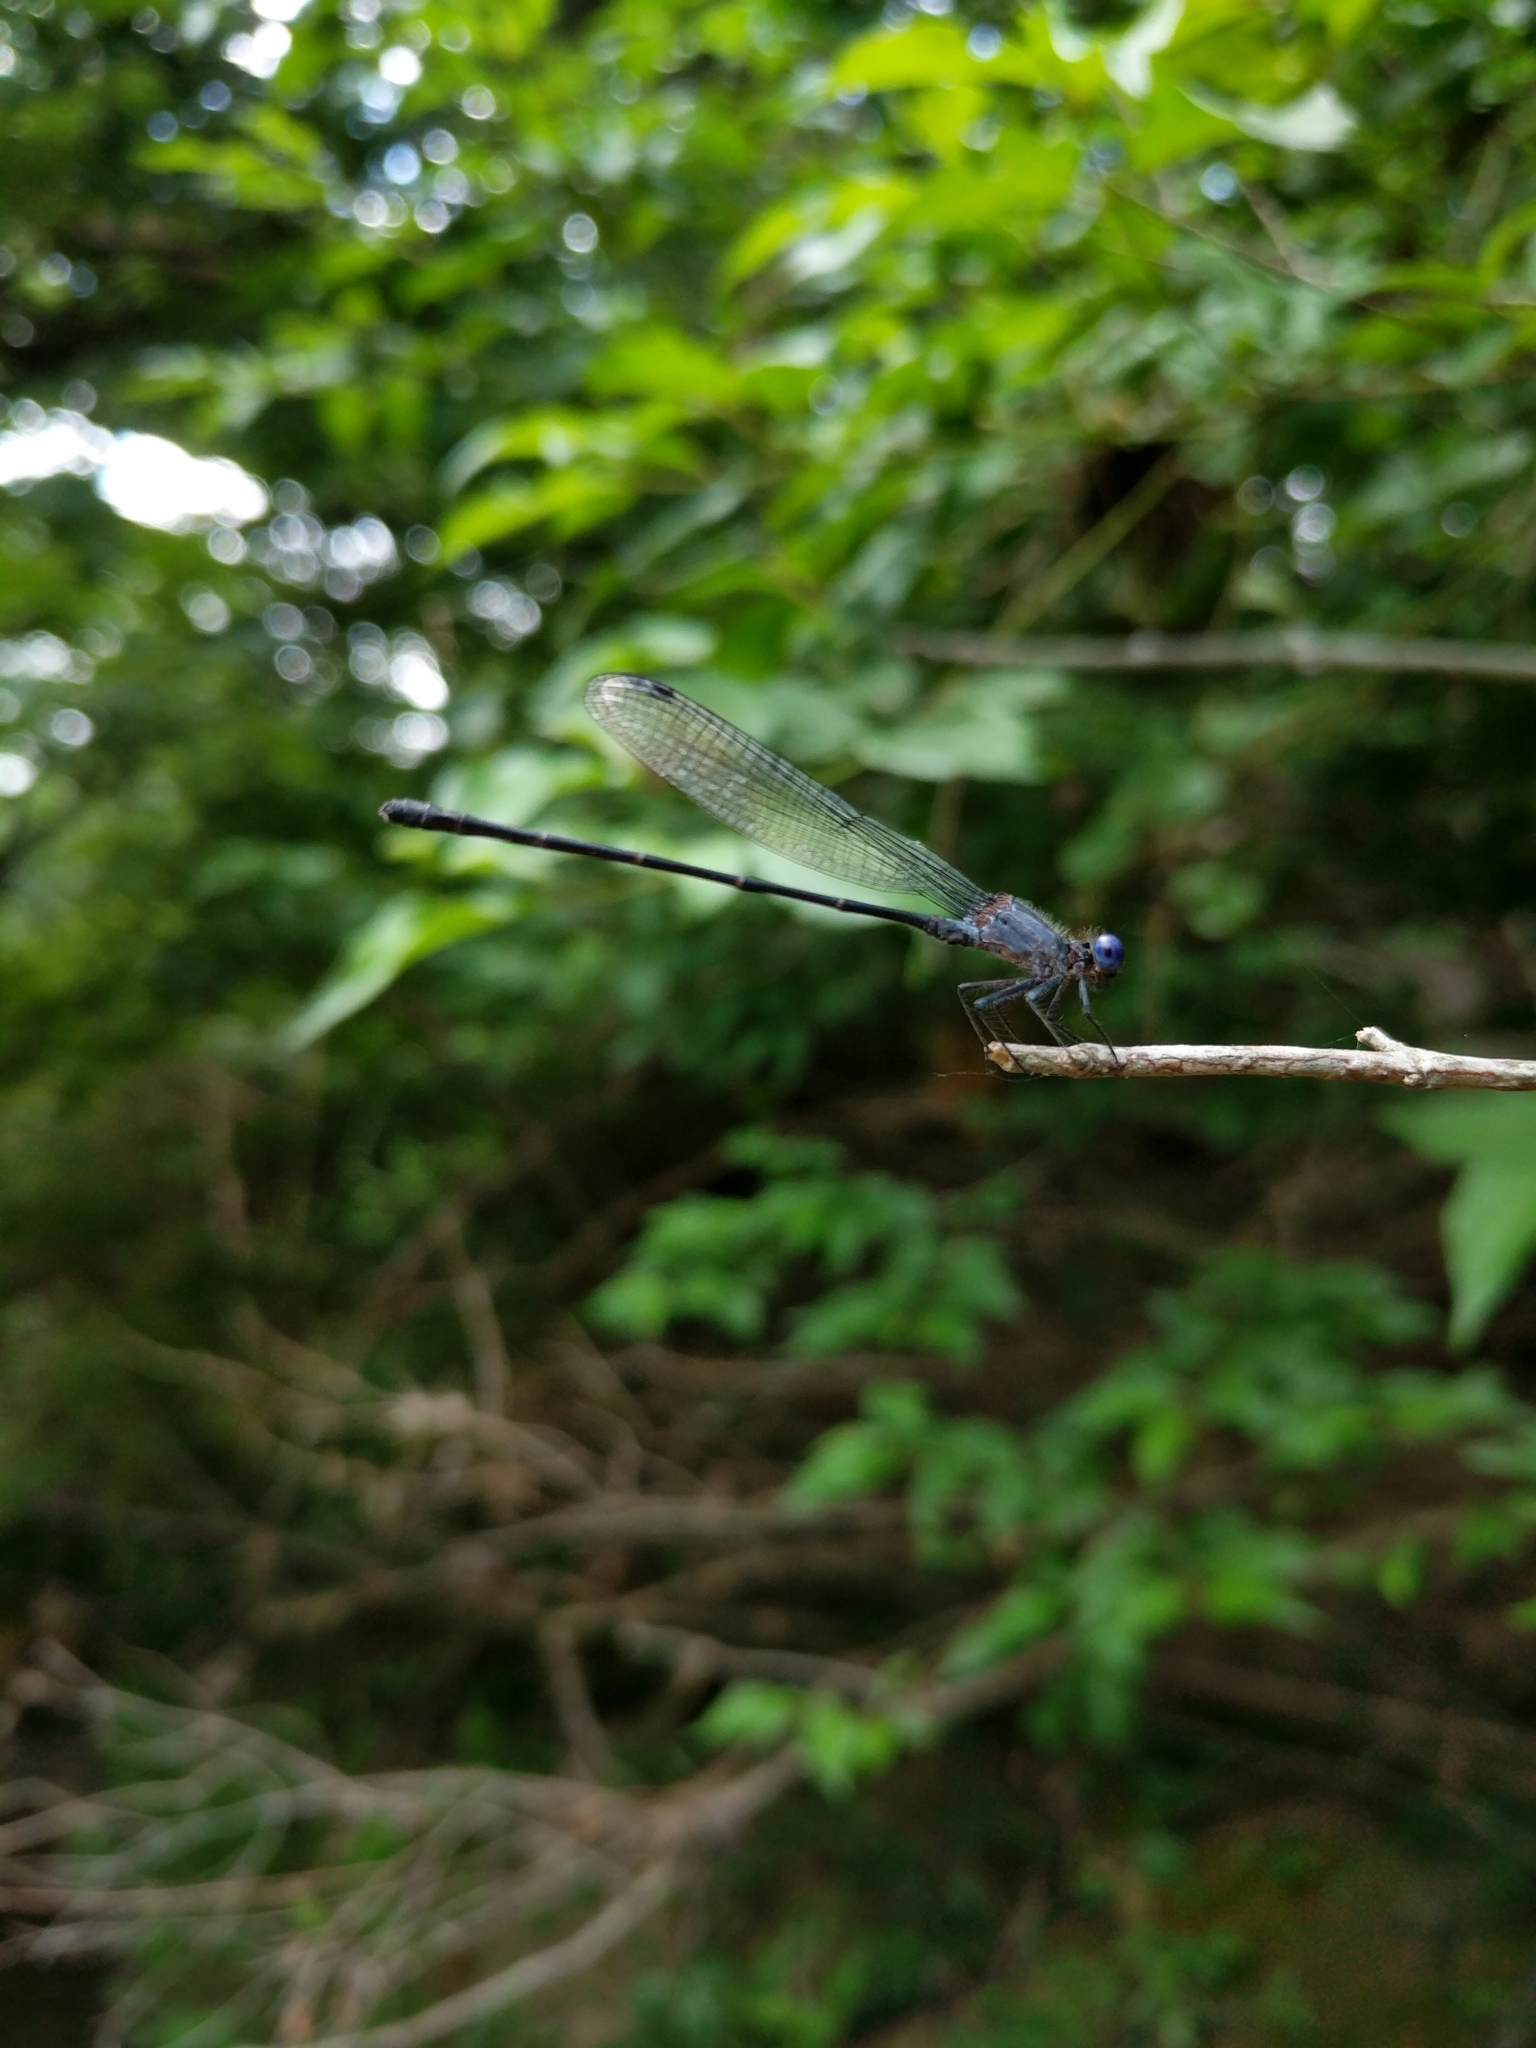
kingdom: Animalia
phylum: Arthropoda
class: Insecta
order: Odonata
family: Coenagrionidae
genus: Argia
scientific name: Argia translata
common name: Dusky dancer
